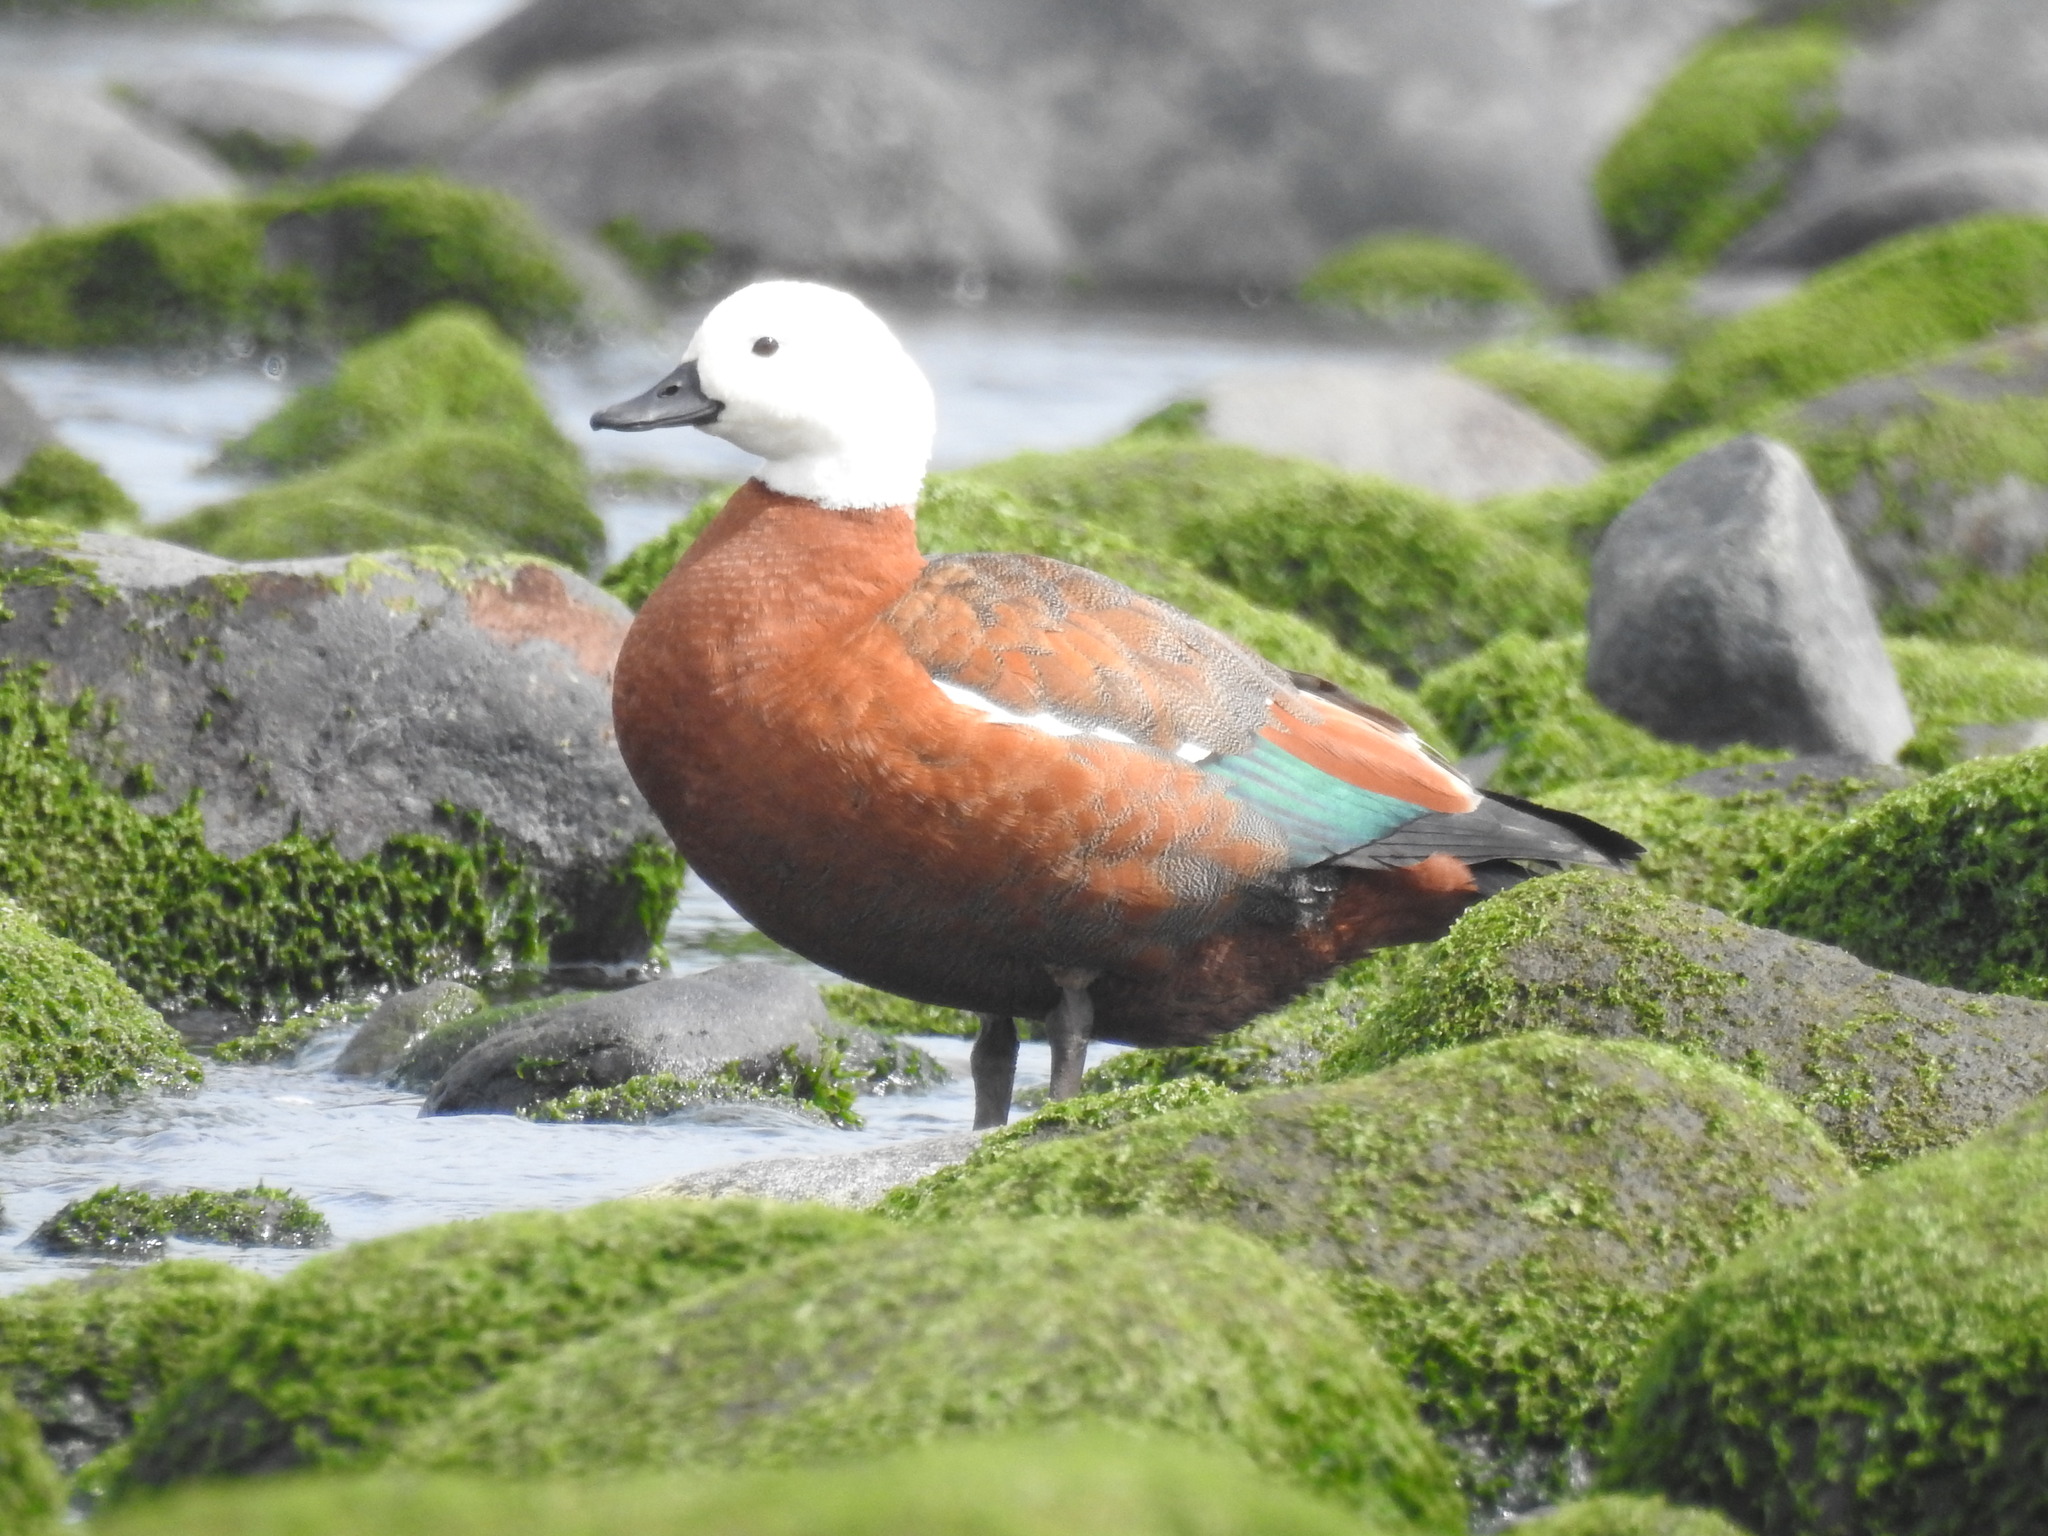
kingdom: Animalia
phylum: Chordata
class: Aves
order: Anseriformes
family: Anatidae
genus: Tadorna
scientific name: Tadorna variegata
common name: Paradise shelduck
